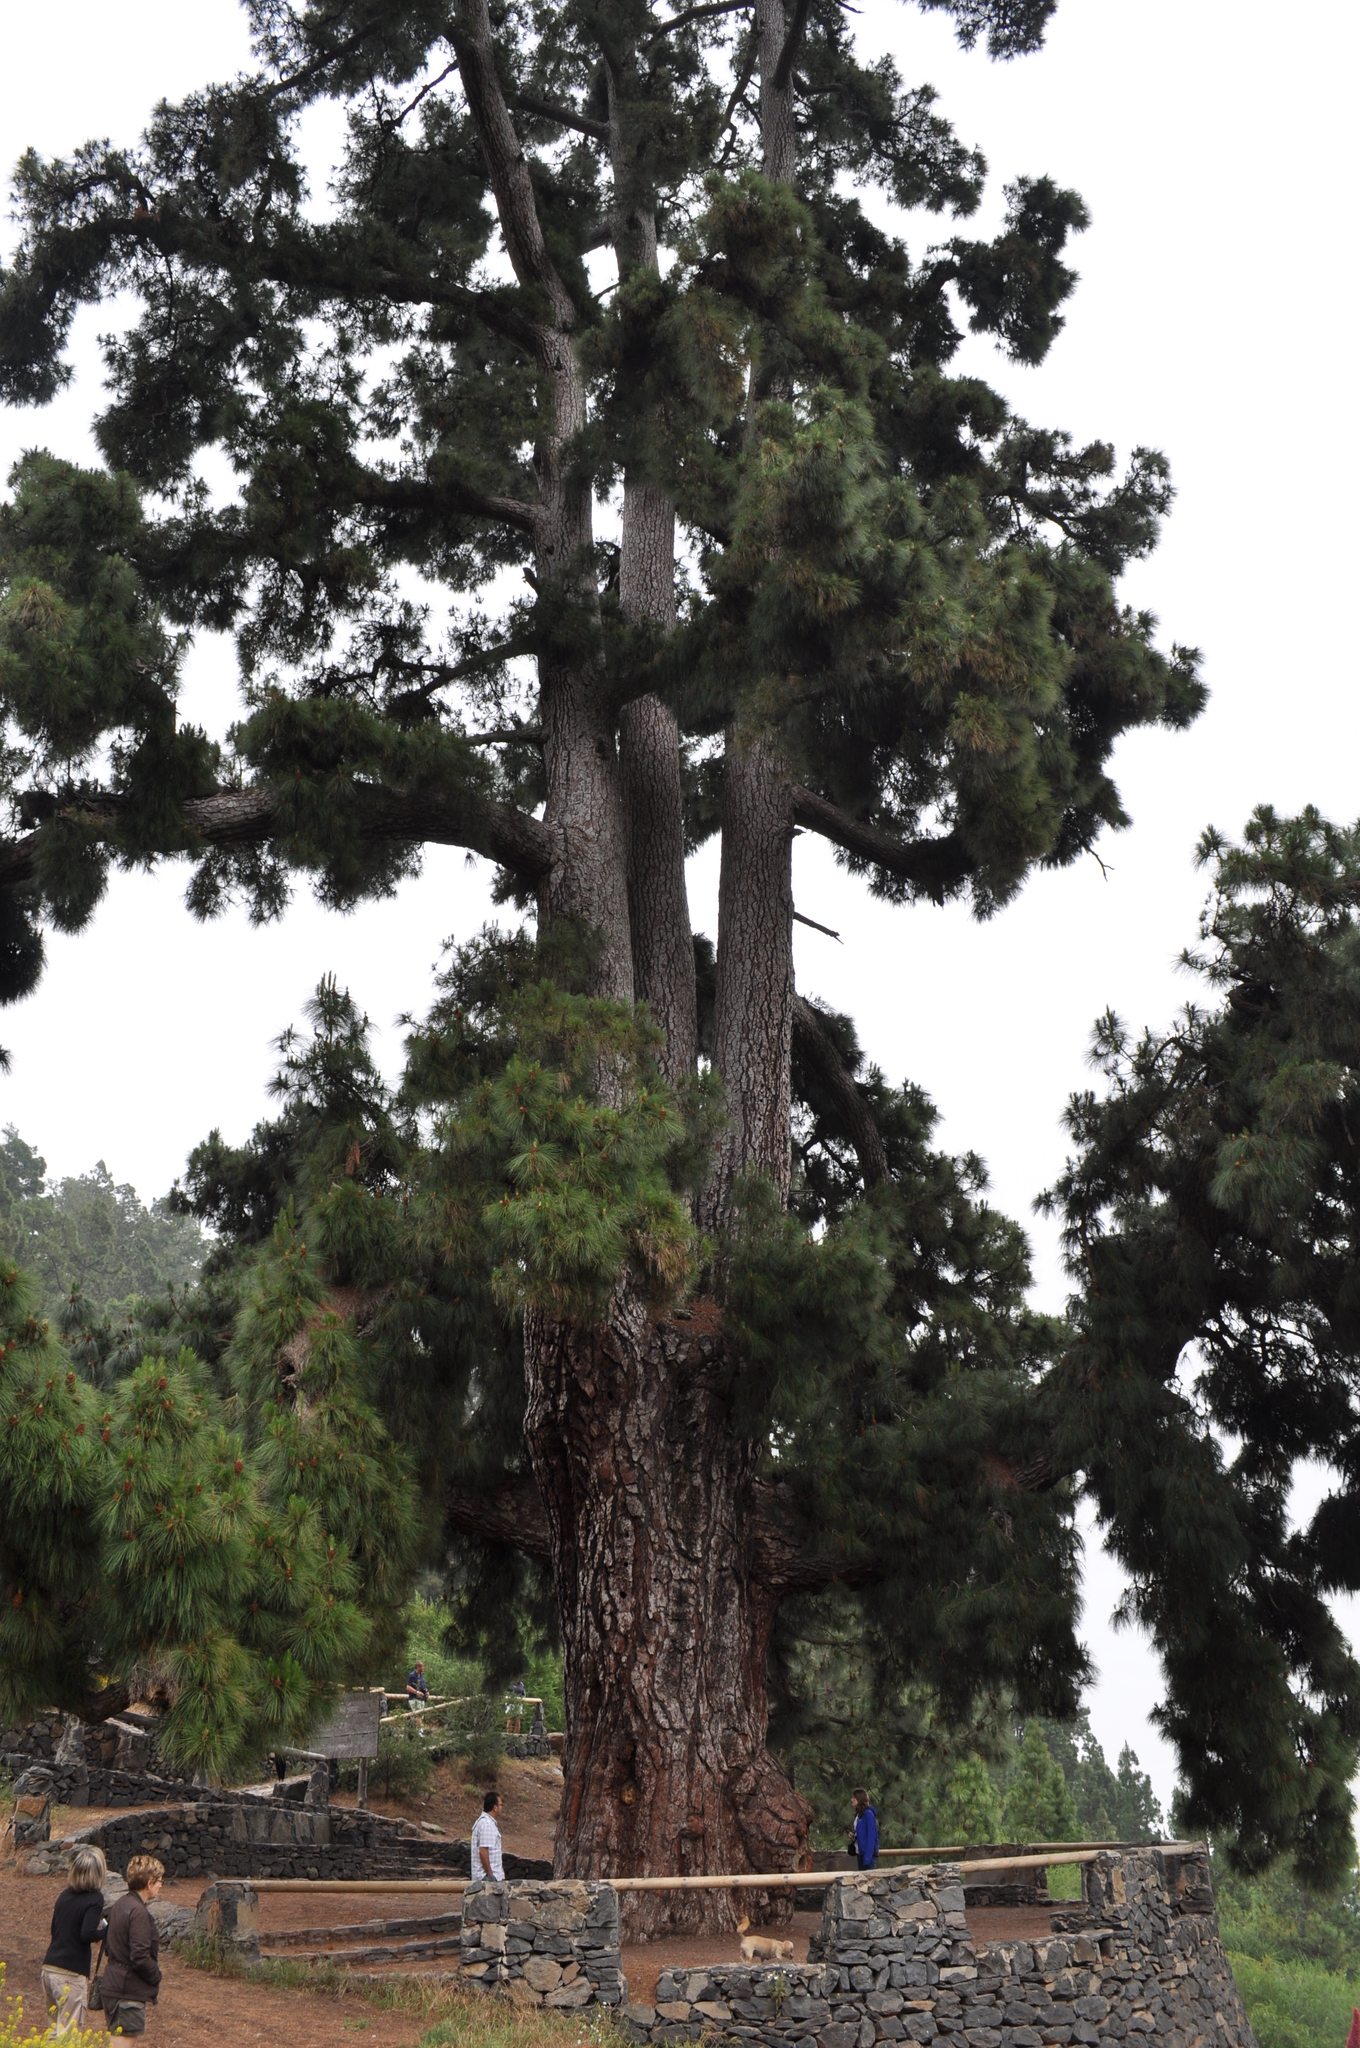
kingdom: Plantae
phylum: Tracheophyta
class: Pinopsida
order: Pinales
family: Pinaceae
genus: Pinus
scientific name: Pinus canariensis
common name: Canary islands pine
